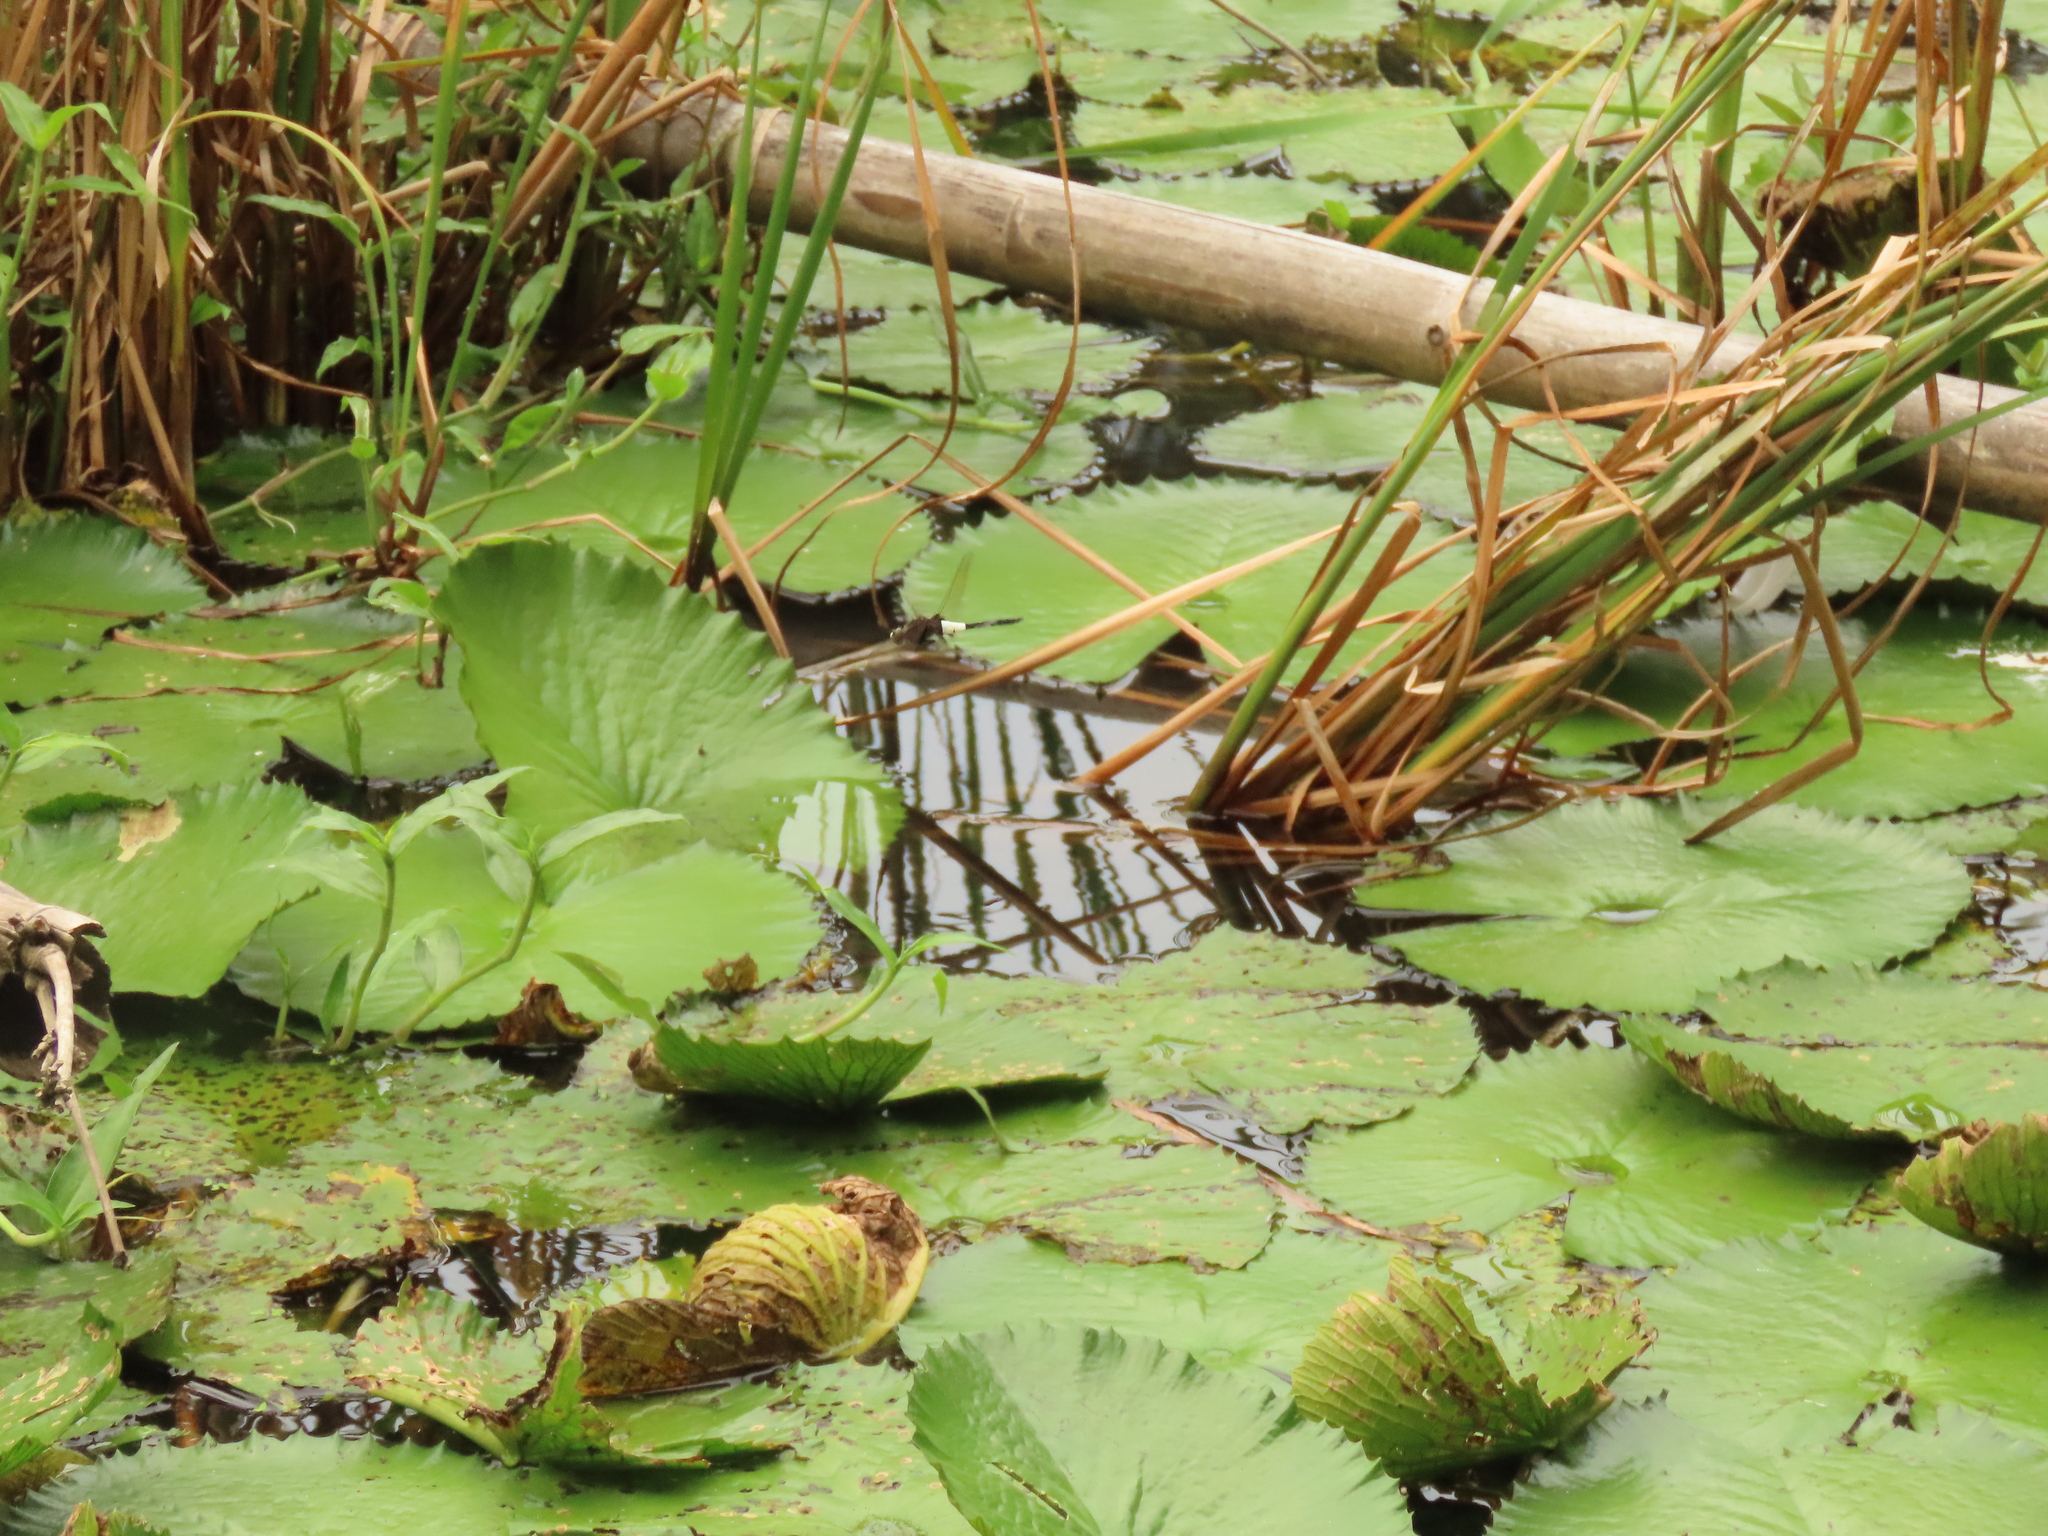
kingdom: Animalia
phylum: Arthropoda
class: Insecta
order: Odonata
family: Libellulidae
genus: Pseudothemis
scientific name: Pseudothemis zonata
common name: Pied skimmer
